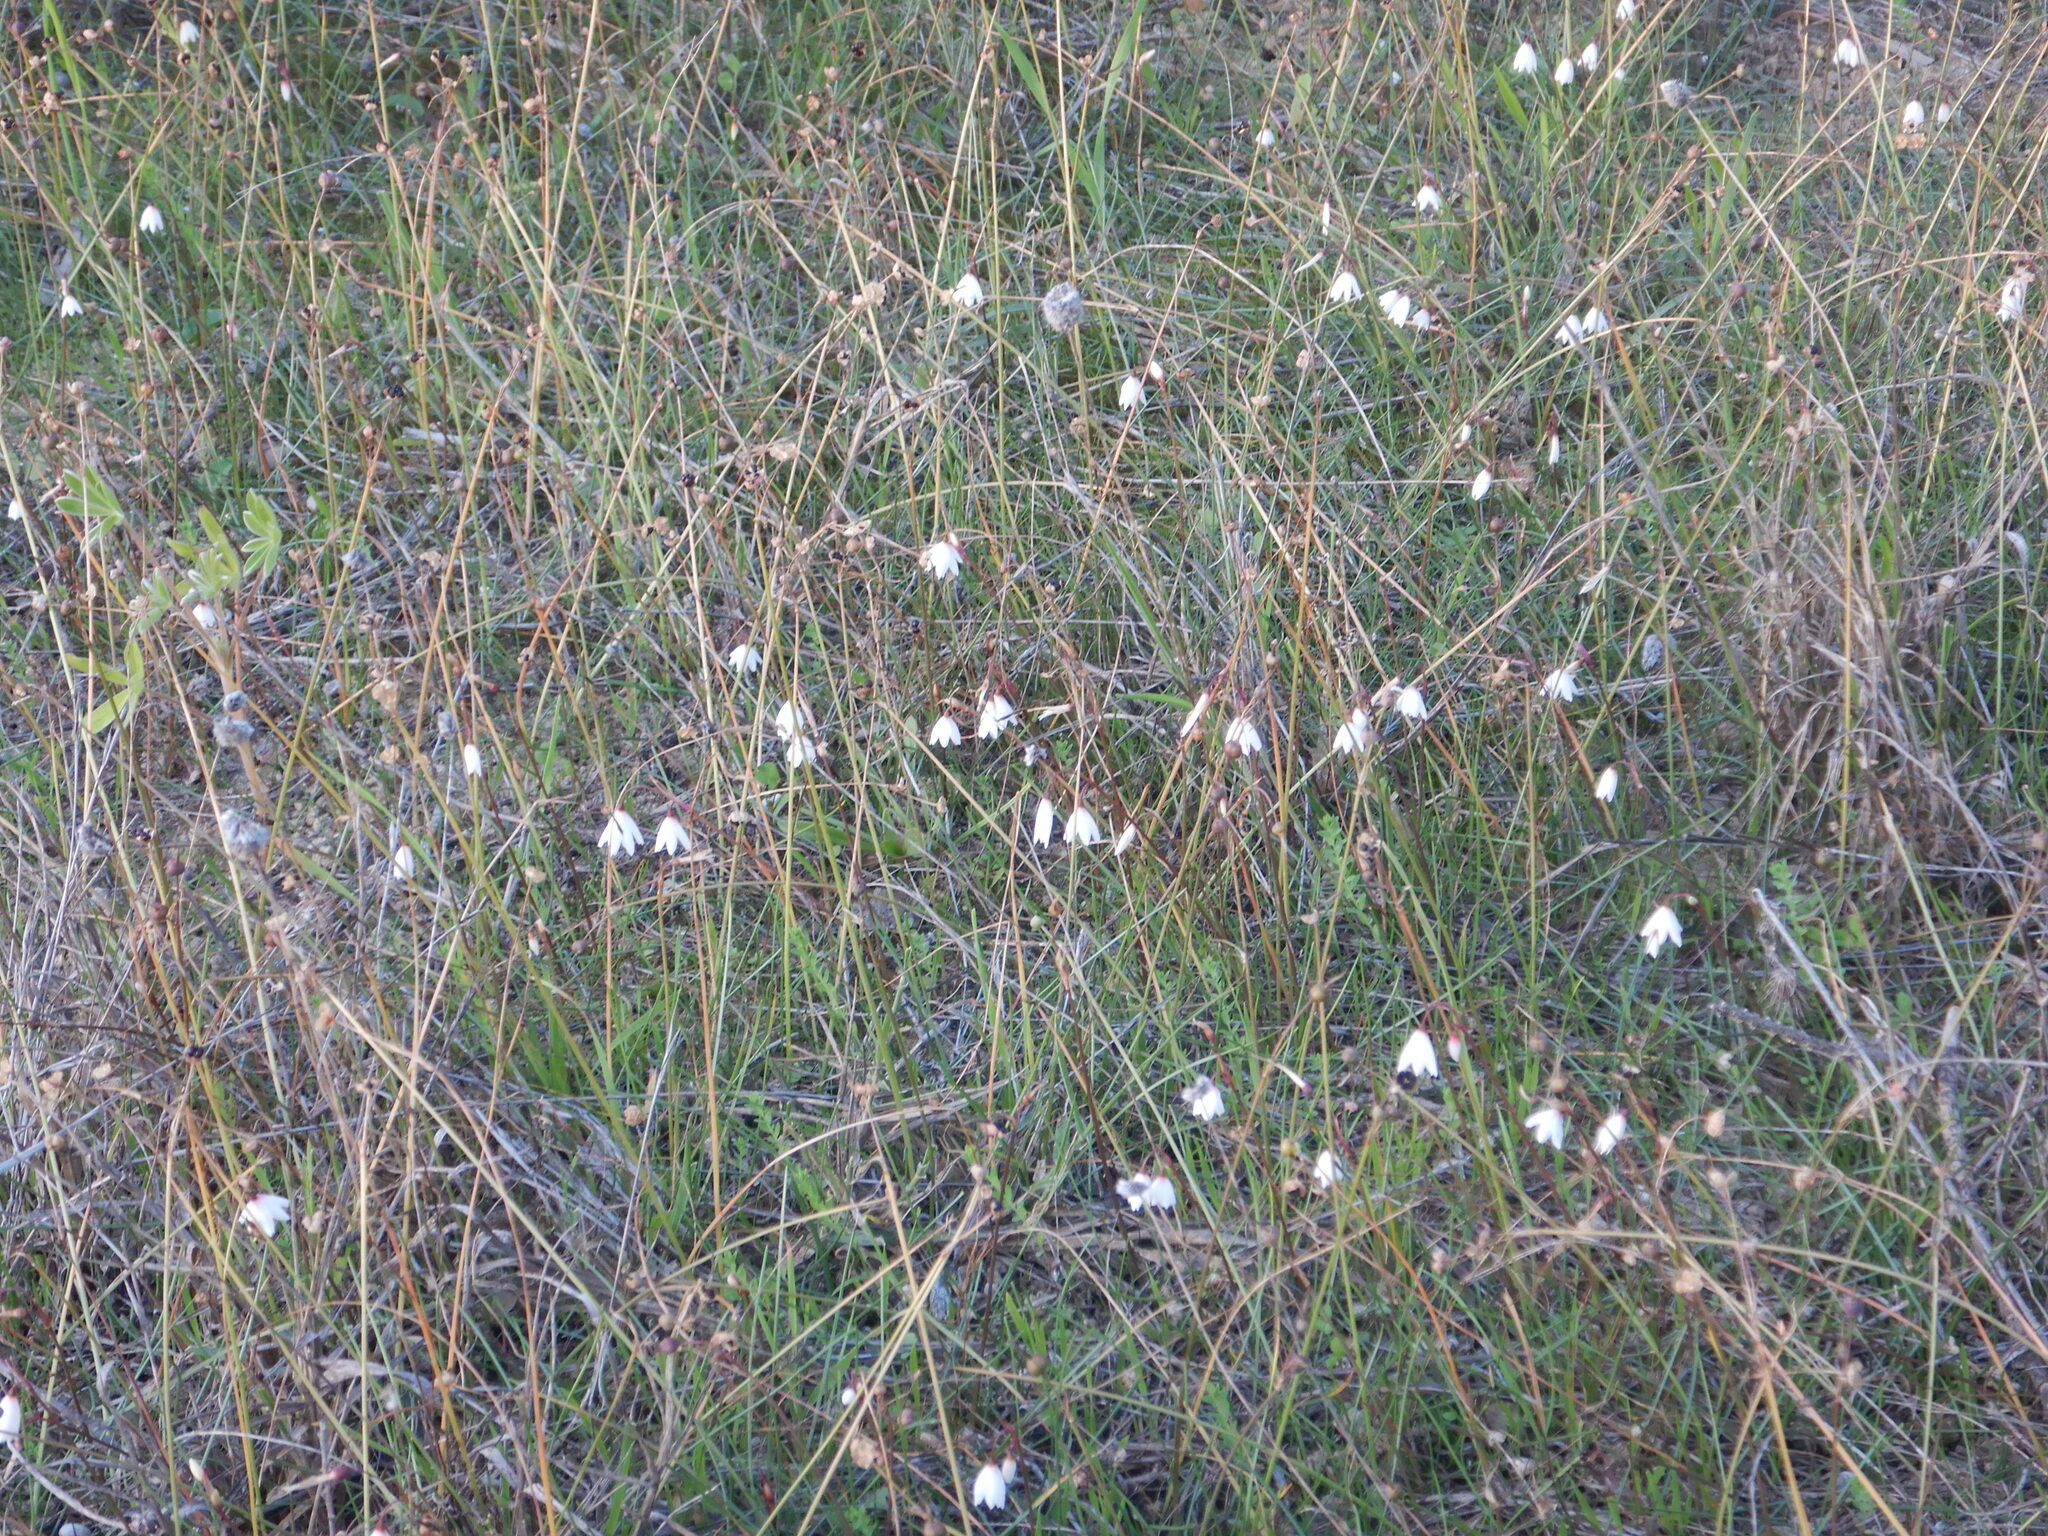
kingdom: Plantae
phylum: Tracheophyta
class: Liliopsida
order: Asparagales
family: Amaryllidaceae
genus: Acis
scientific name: Acis autumnalis
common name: Autumn snowflake
